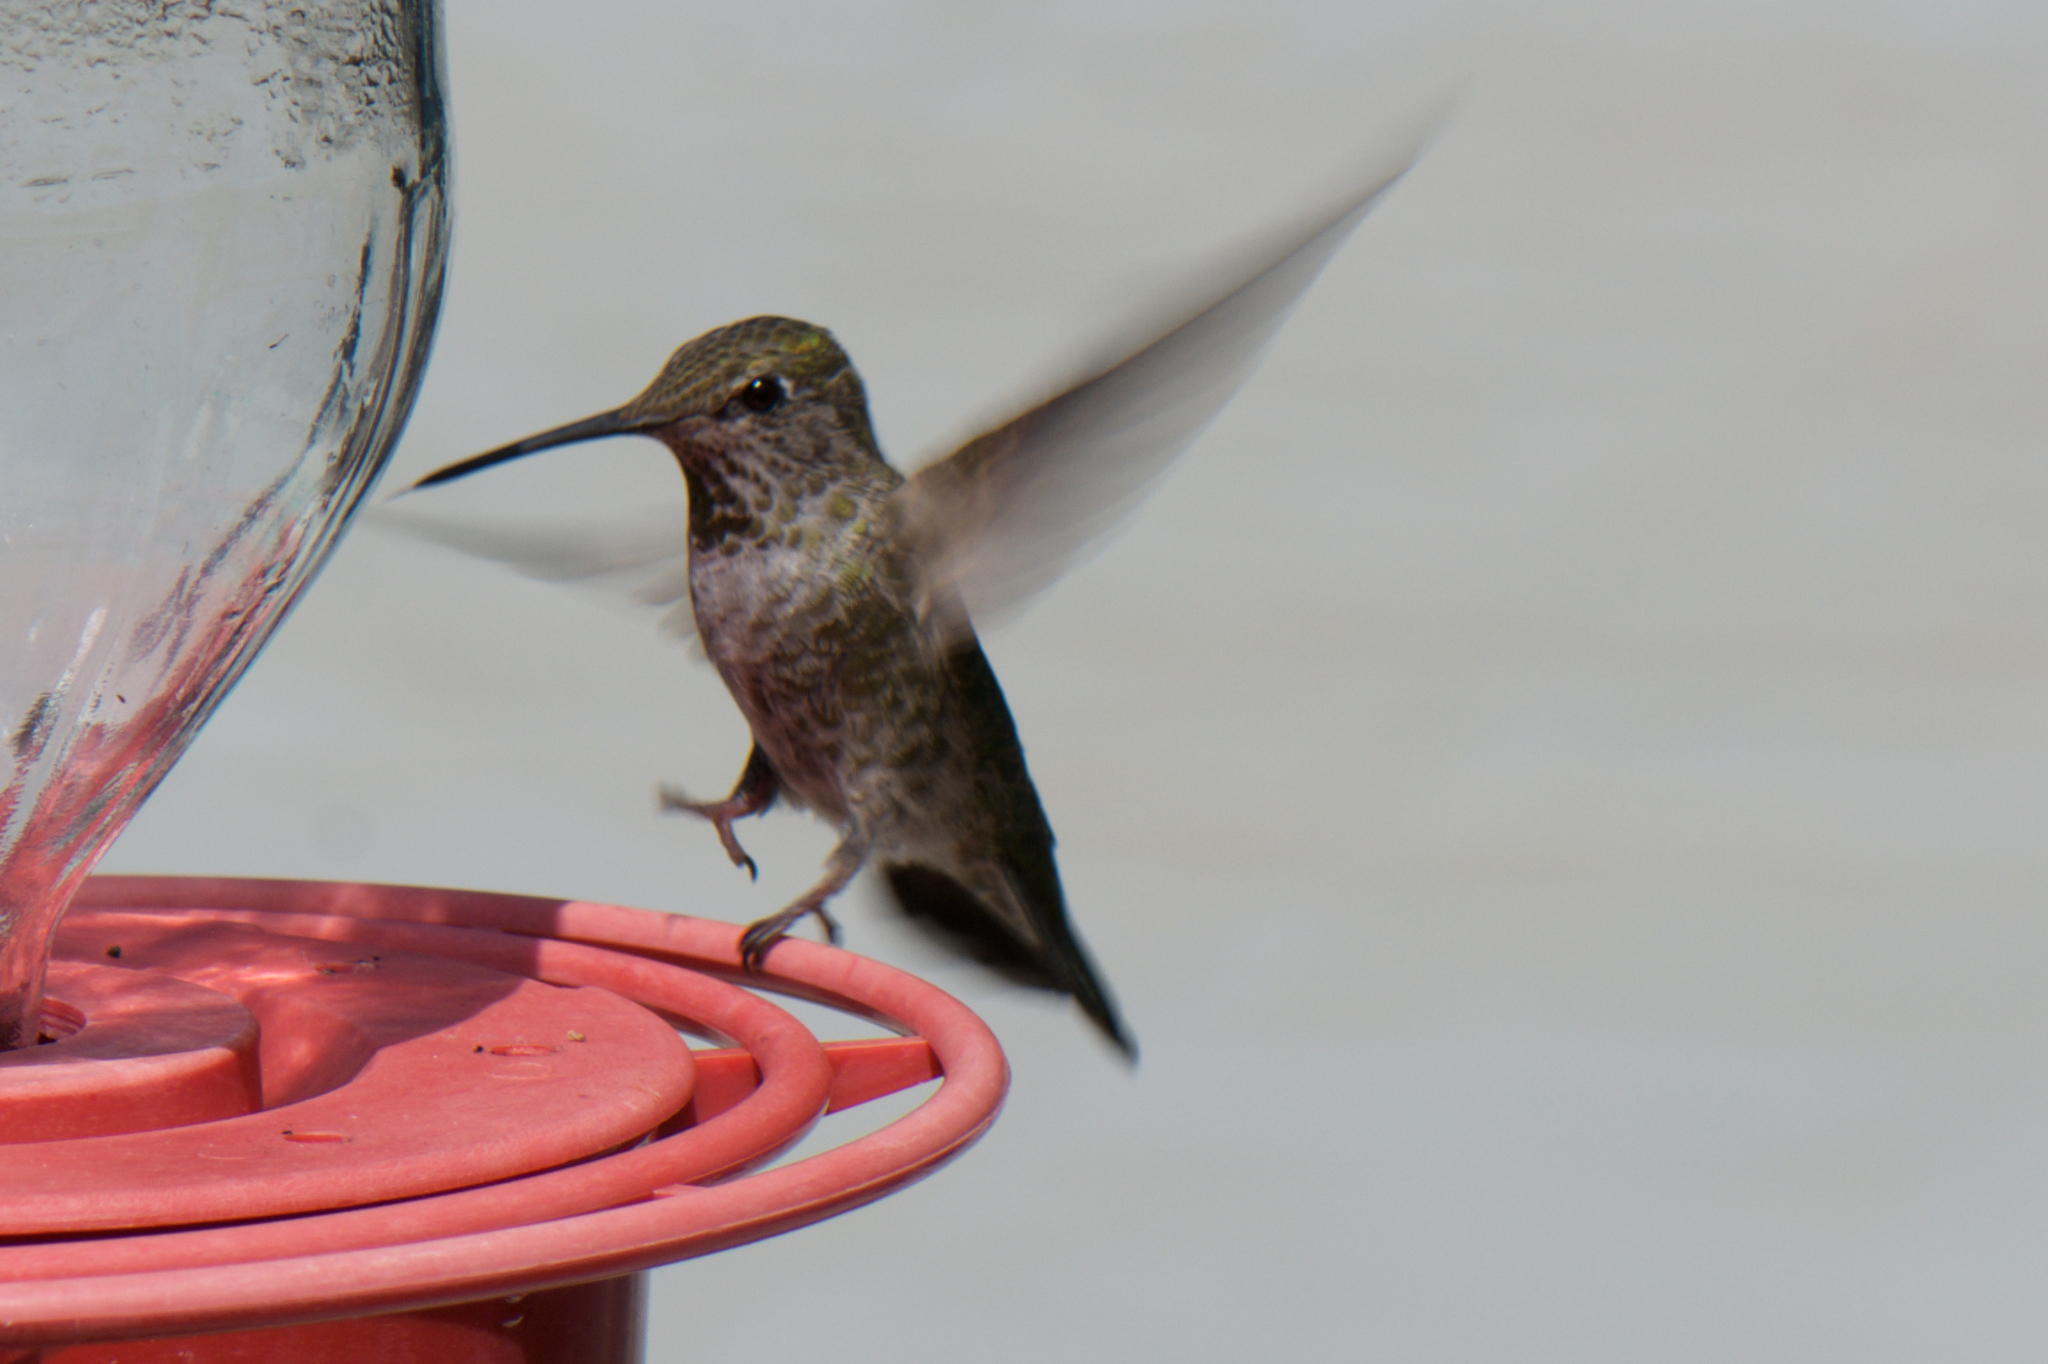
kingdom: Animalia
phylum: Chordata
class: Aves
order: Apodiformes
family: Trochilidae
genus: Calypte
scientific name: Calypte anna
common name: Anna's hummingbird
